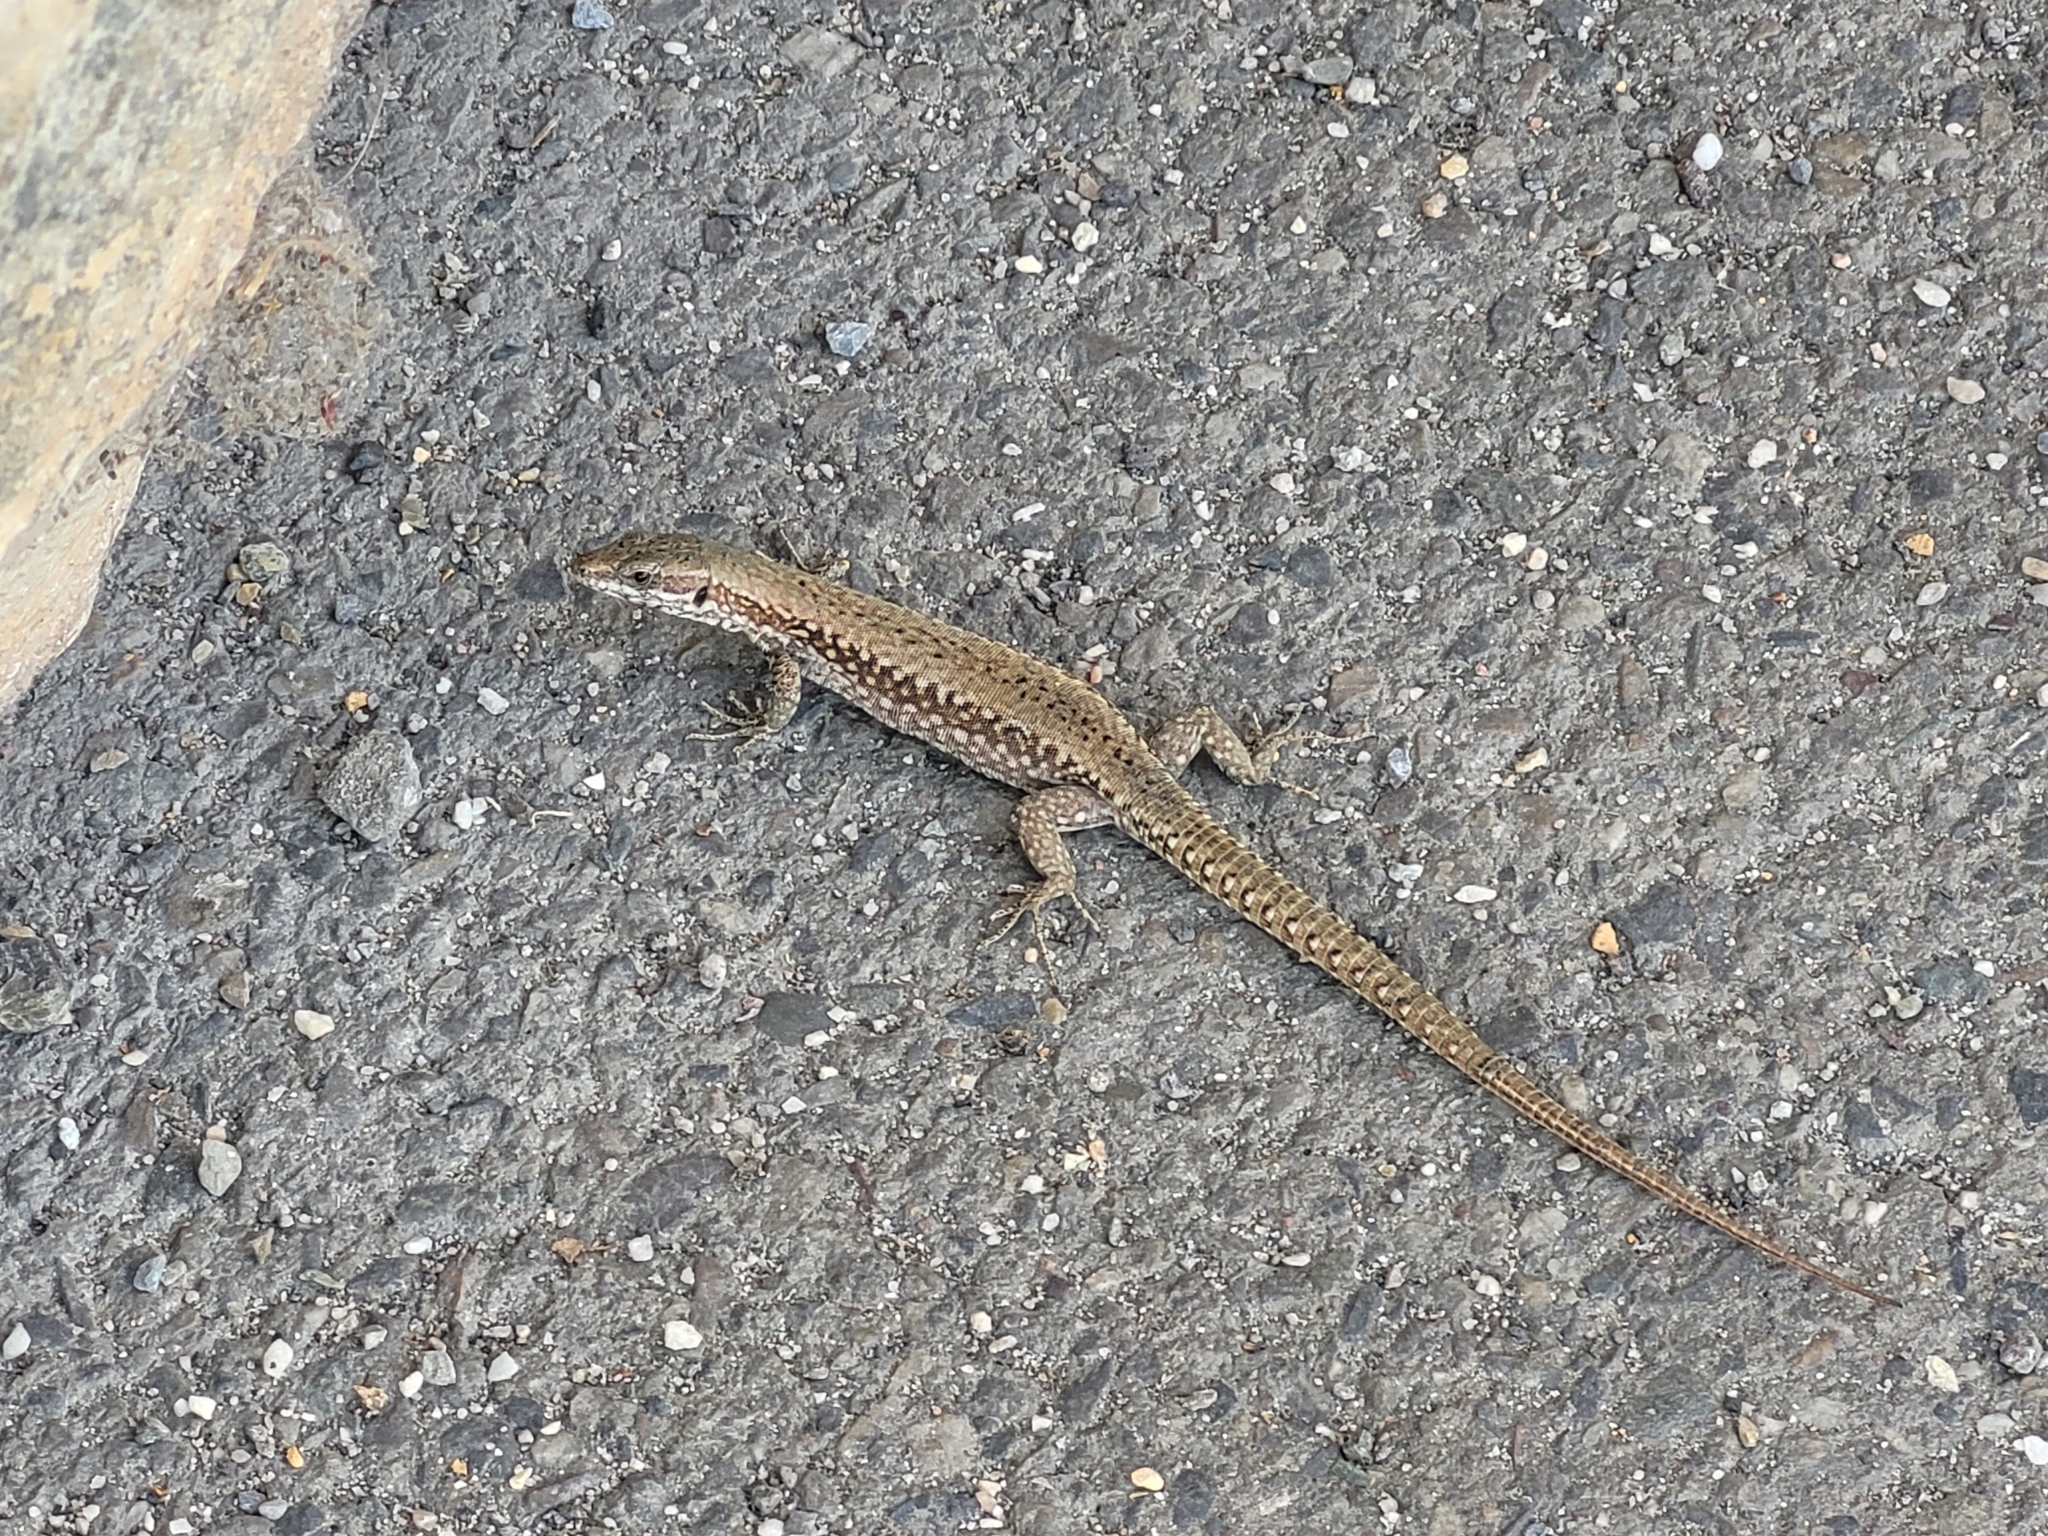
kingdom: Animalia
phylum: Chordata
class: Squamata
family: Lacertidae
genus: Podarcis
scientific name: Podarcis muralis
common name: Common wall lizard
